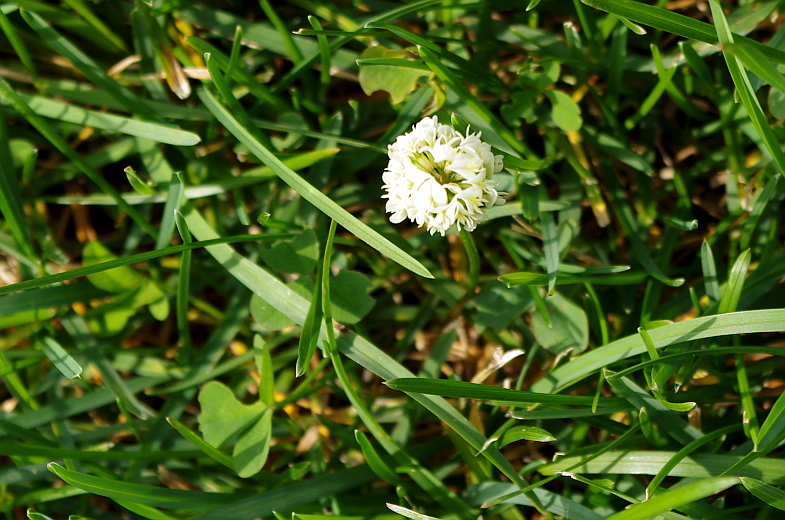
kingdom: Plantae
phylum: Tracheophyta
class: Magnoliopsida
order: Fabales
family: Fabaceae
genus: Trifolium
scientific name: Trifolium repens
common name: White clover
